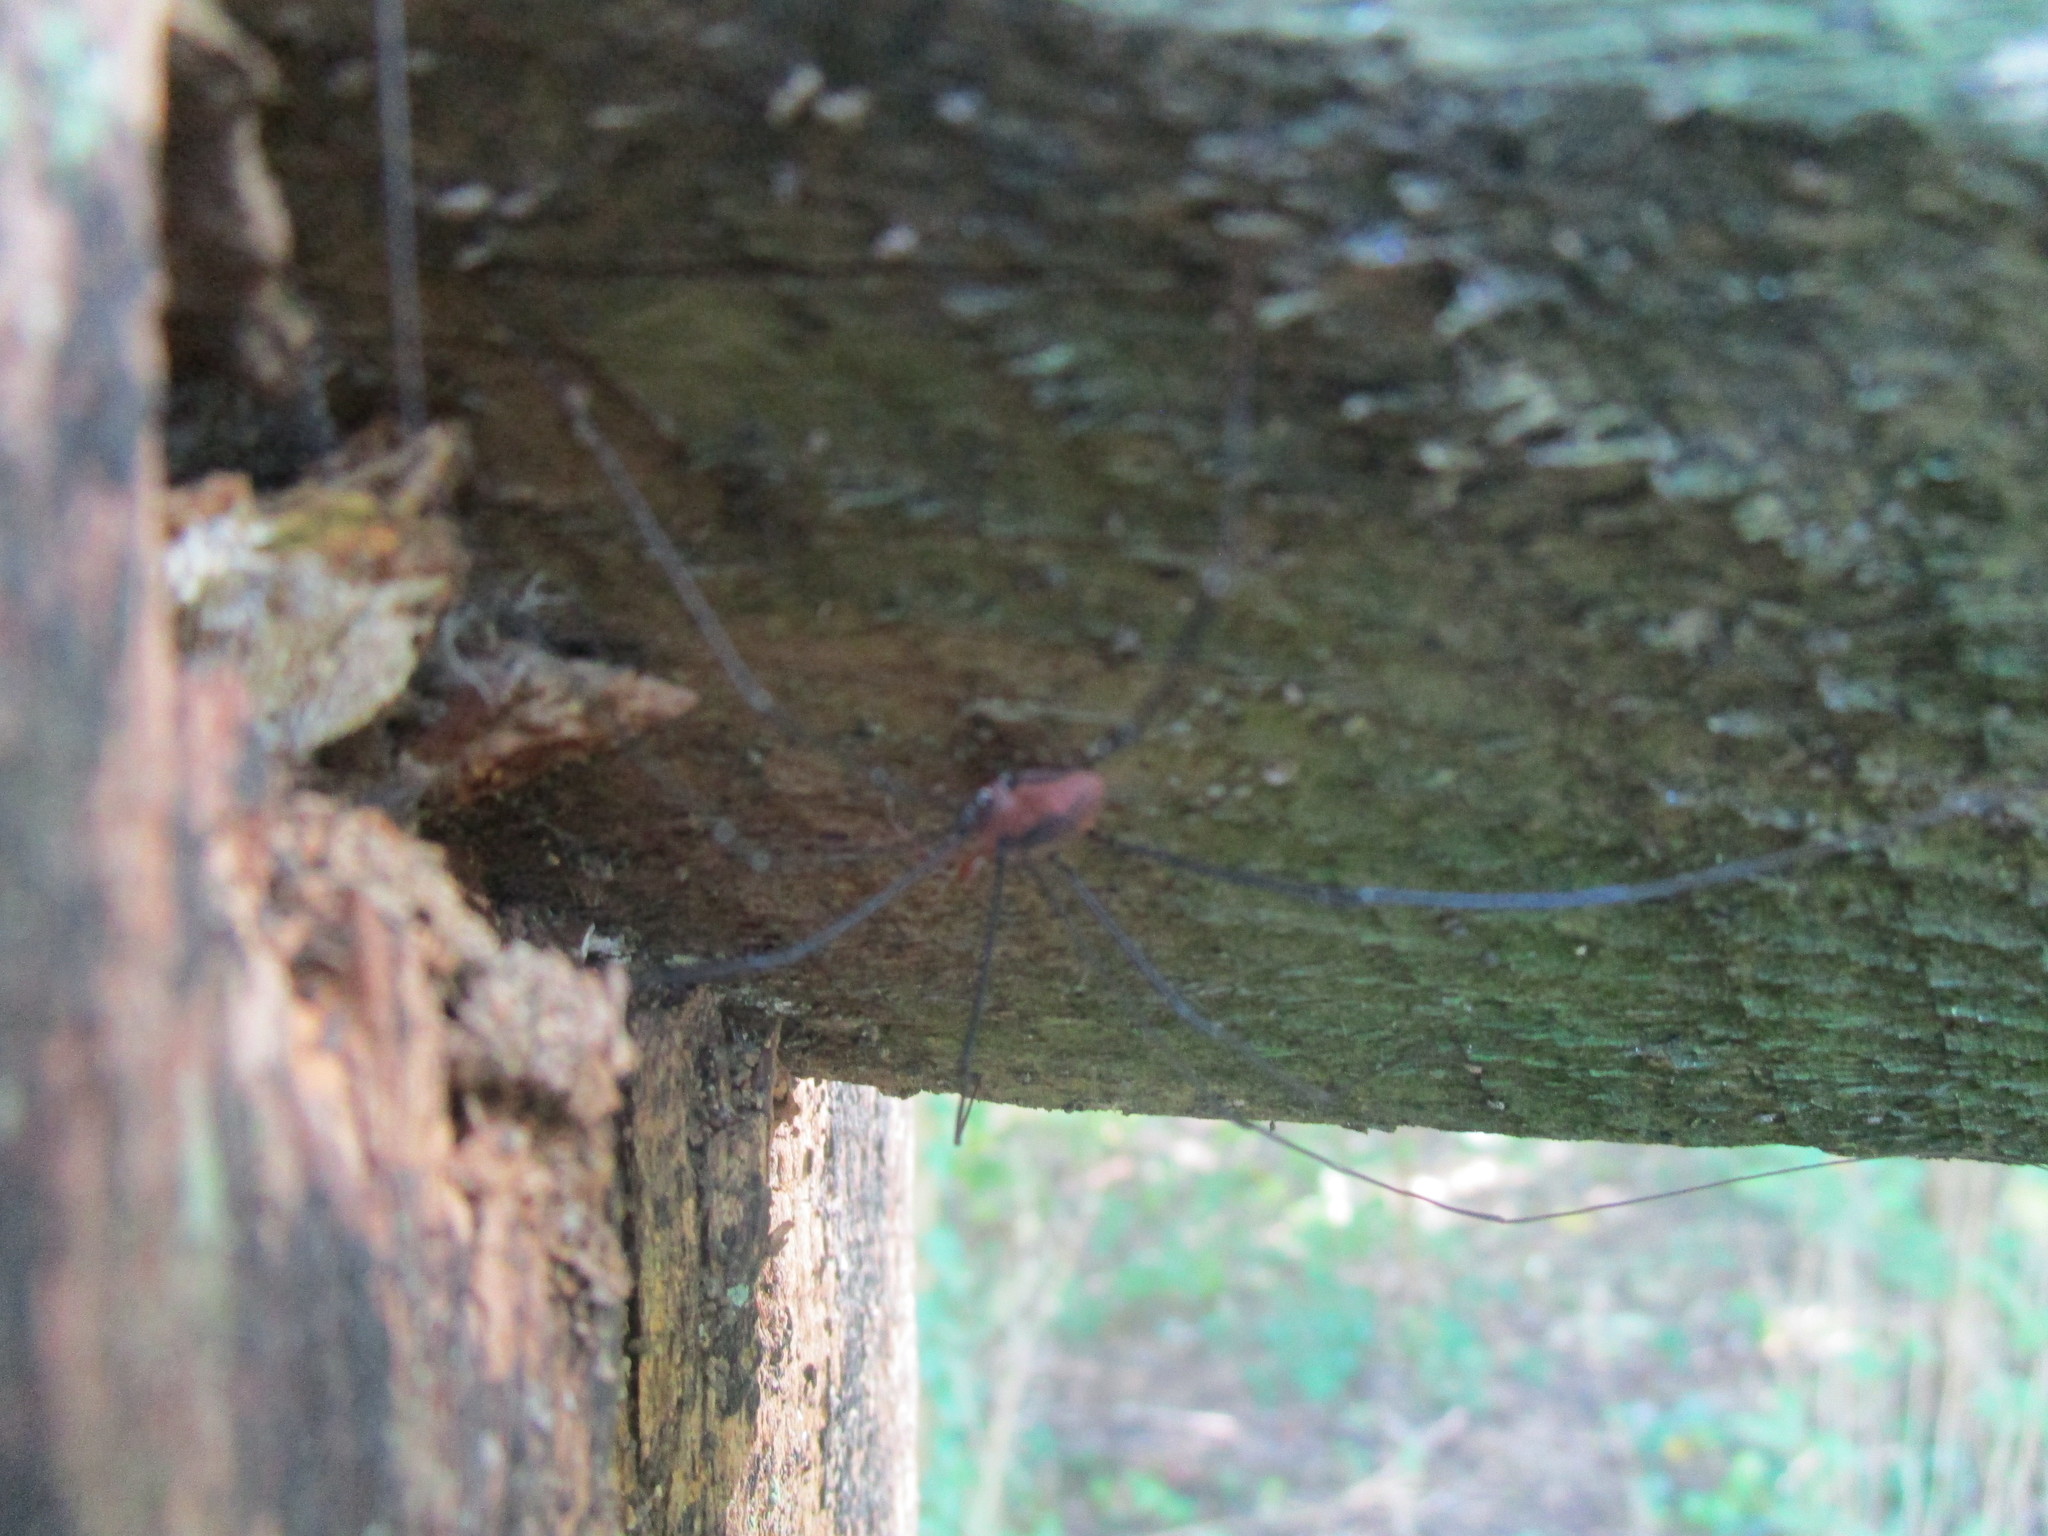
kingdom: Animalia
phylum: Arthropoda
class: Arachnida
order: Opiliones
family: Sclerosomatidae
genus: Leiobunum
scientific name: Leiobunum vittatum
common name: Eastern harvestman
